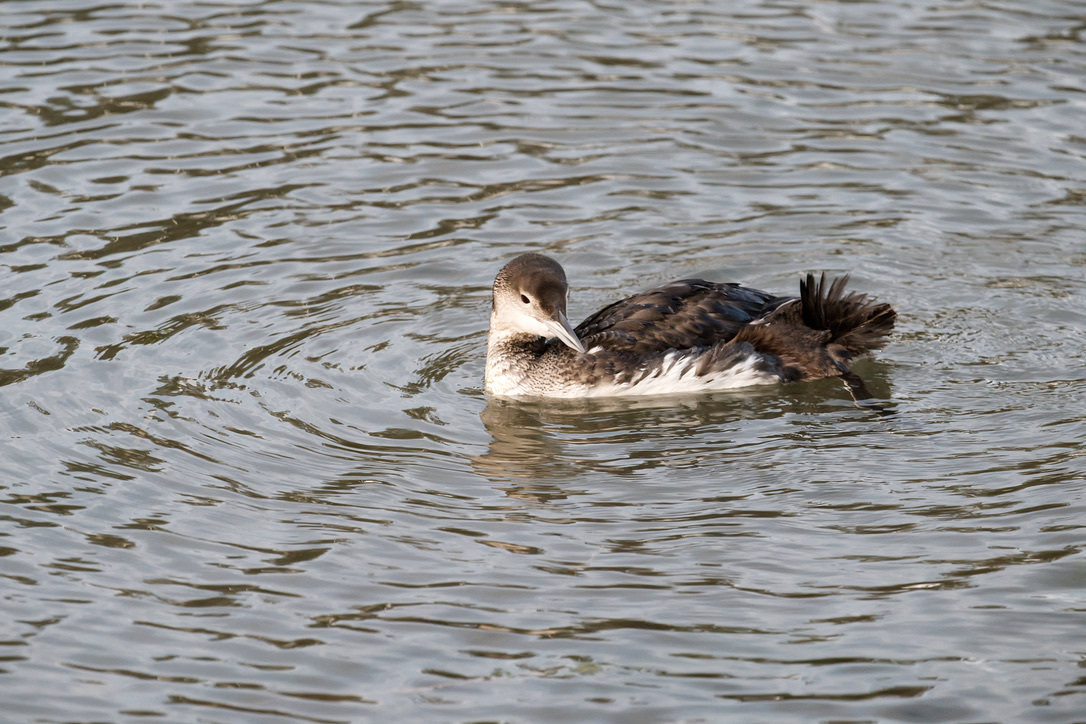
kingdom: Animalia
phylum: Chordata
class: Aves
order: Gaviiformes
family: Gaviidae
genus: Gavia
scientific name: Gavia immer
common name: Common loon
